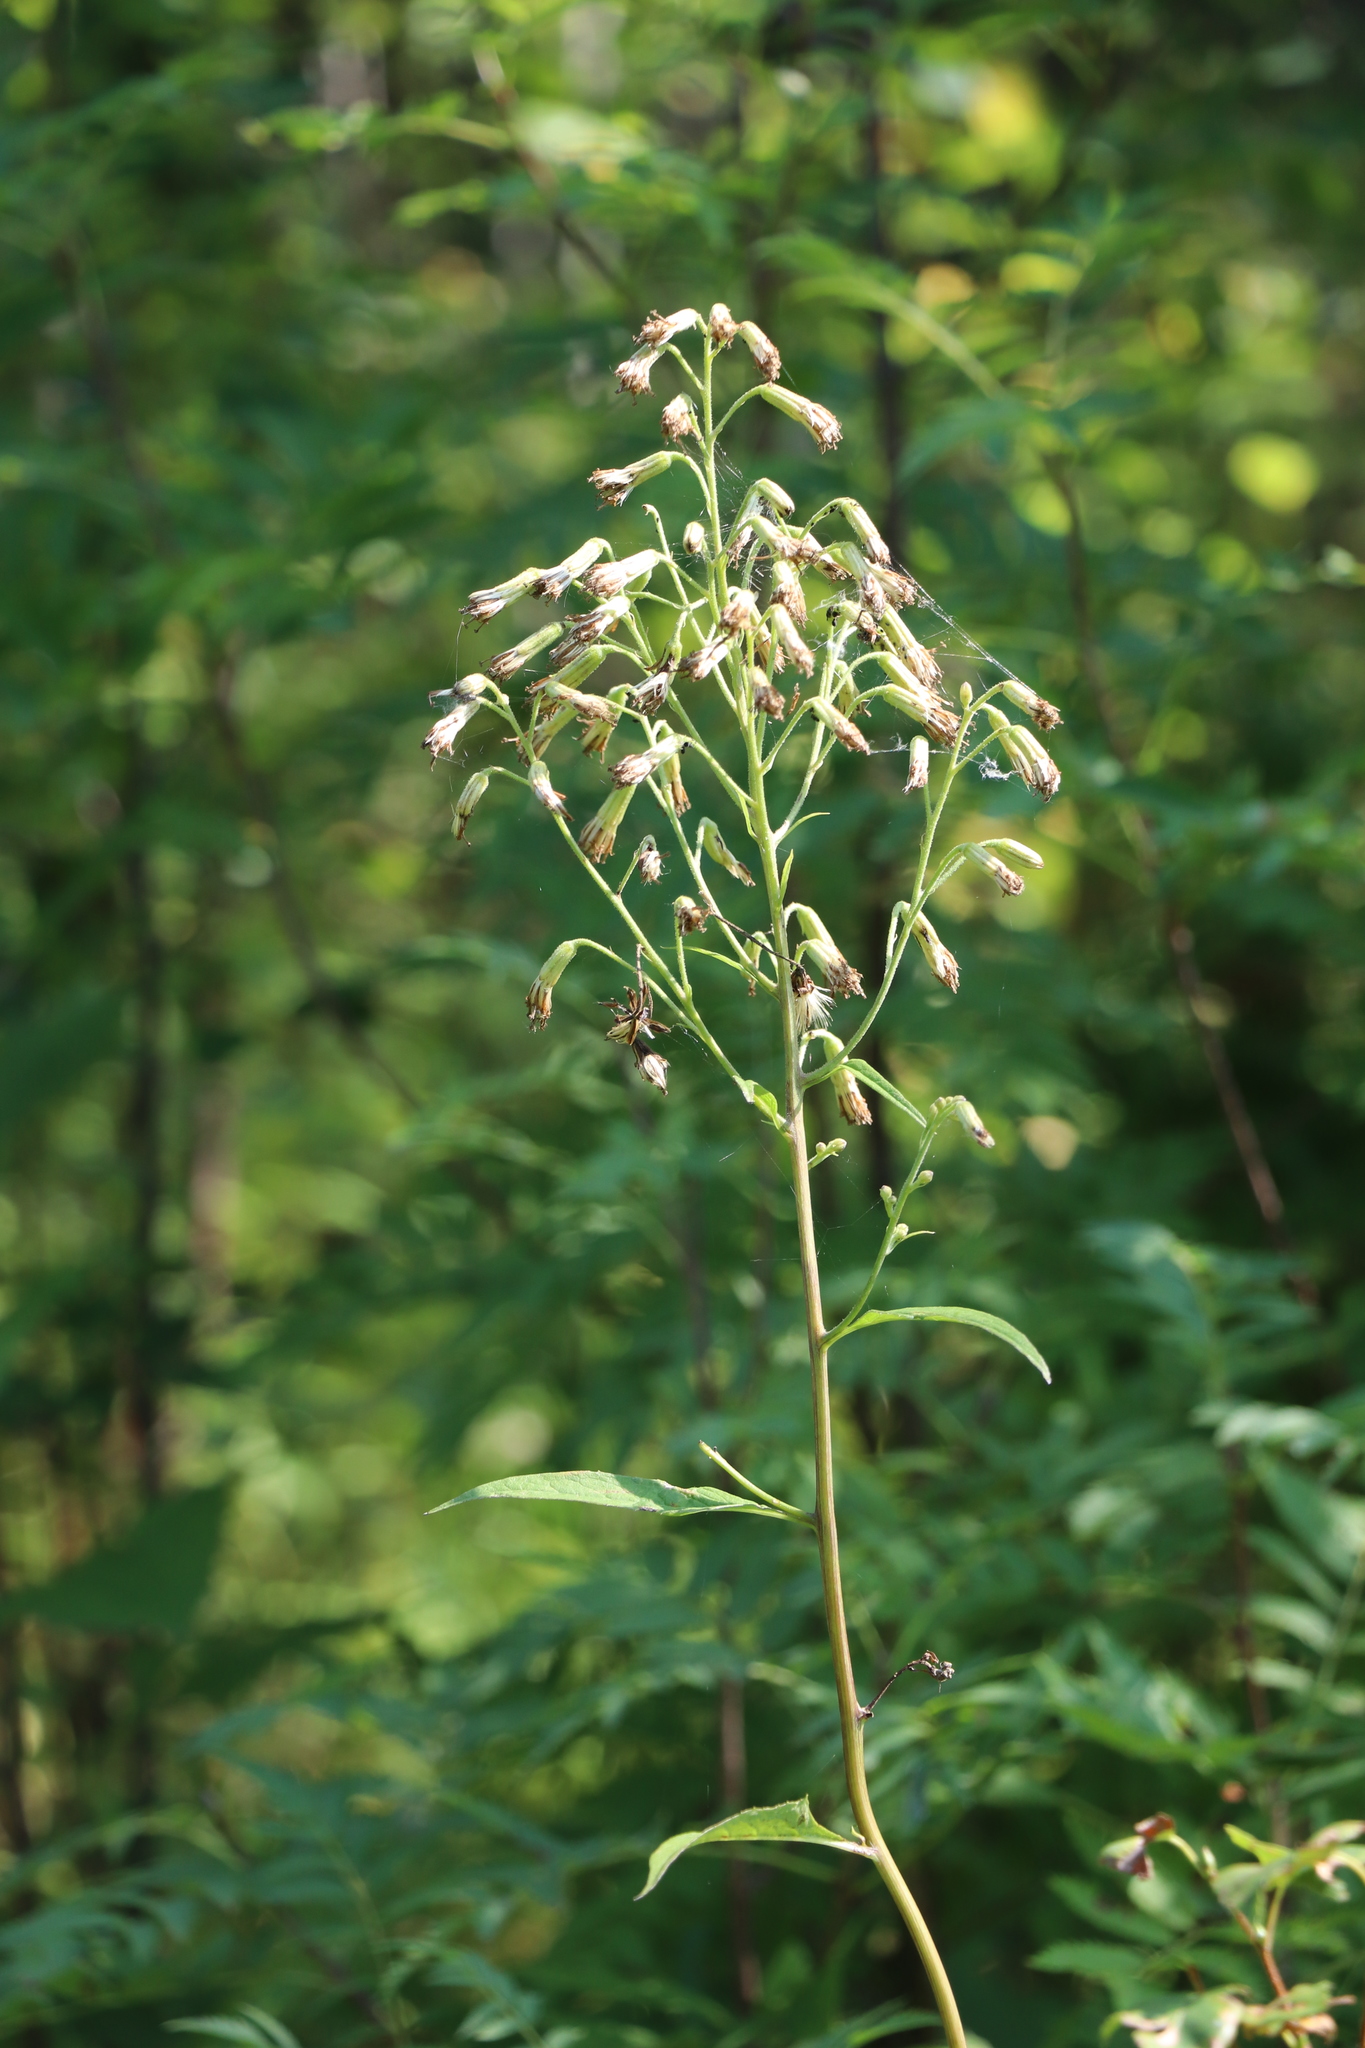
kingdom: Plantae
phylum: Tracheophyta
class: Magnoliopsida
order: Asterales
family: Asteraceae
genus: Parasenecio
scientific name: Parasenecio hastatus
